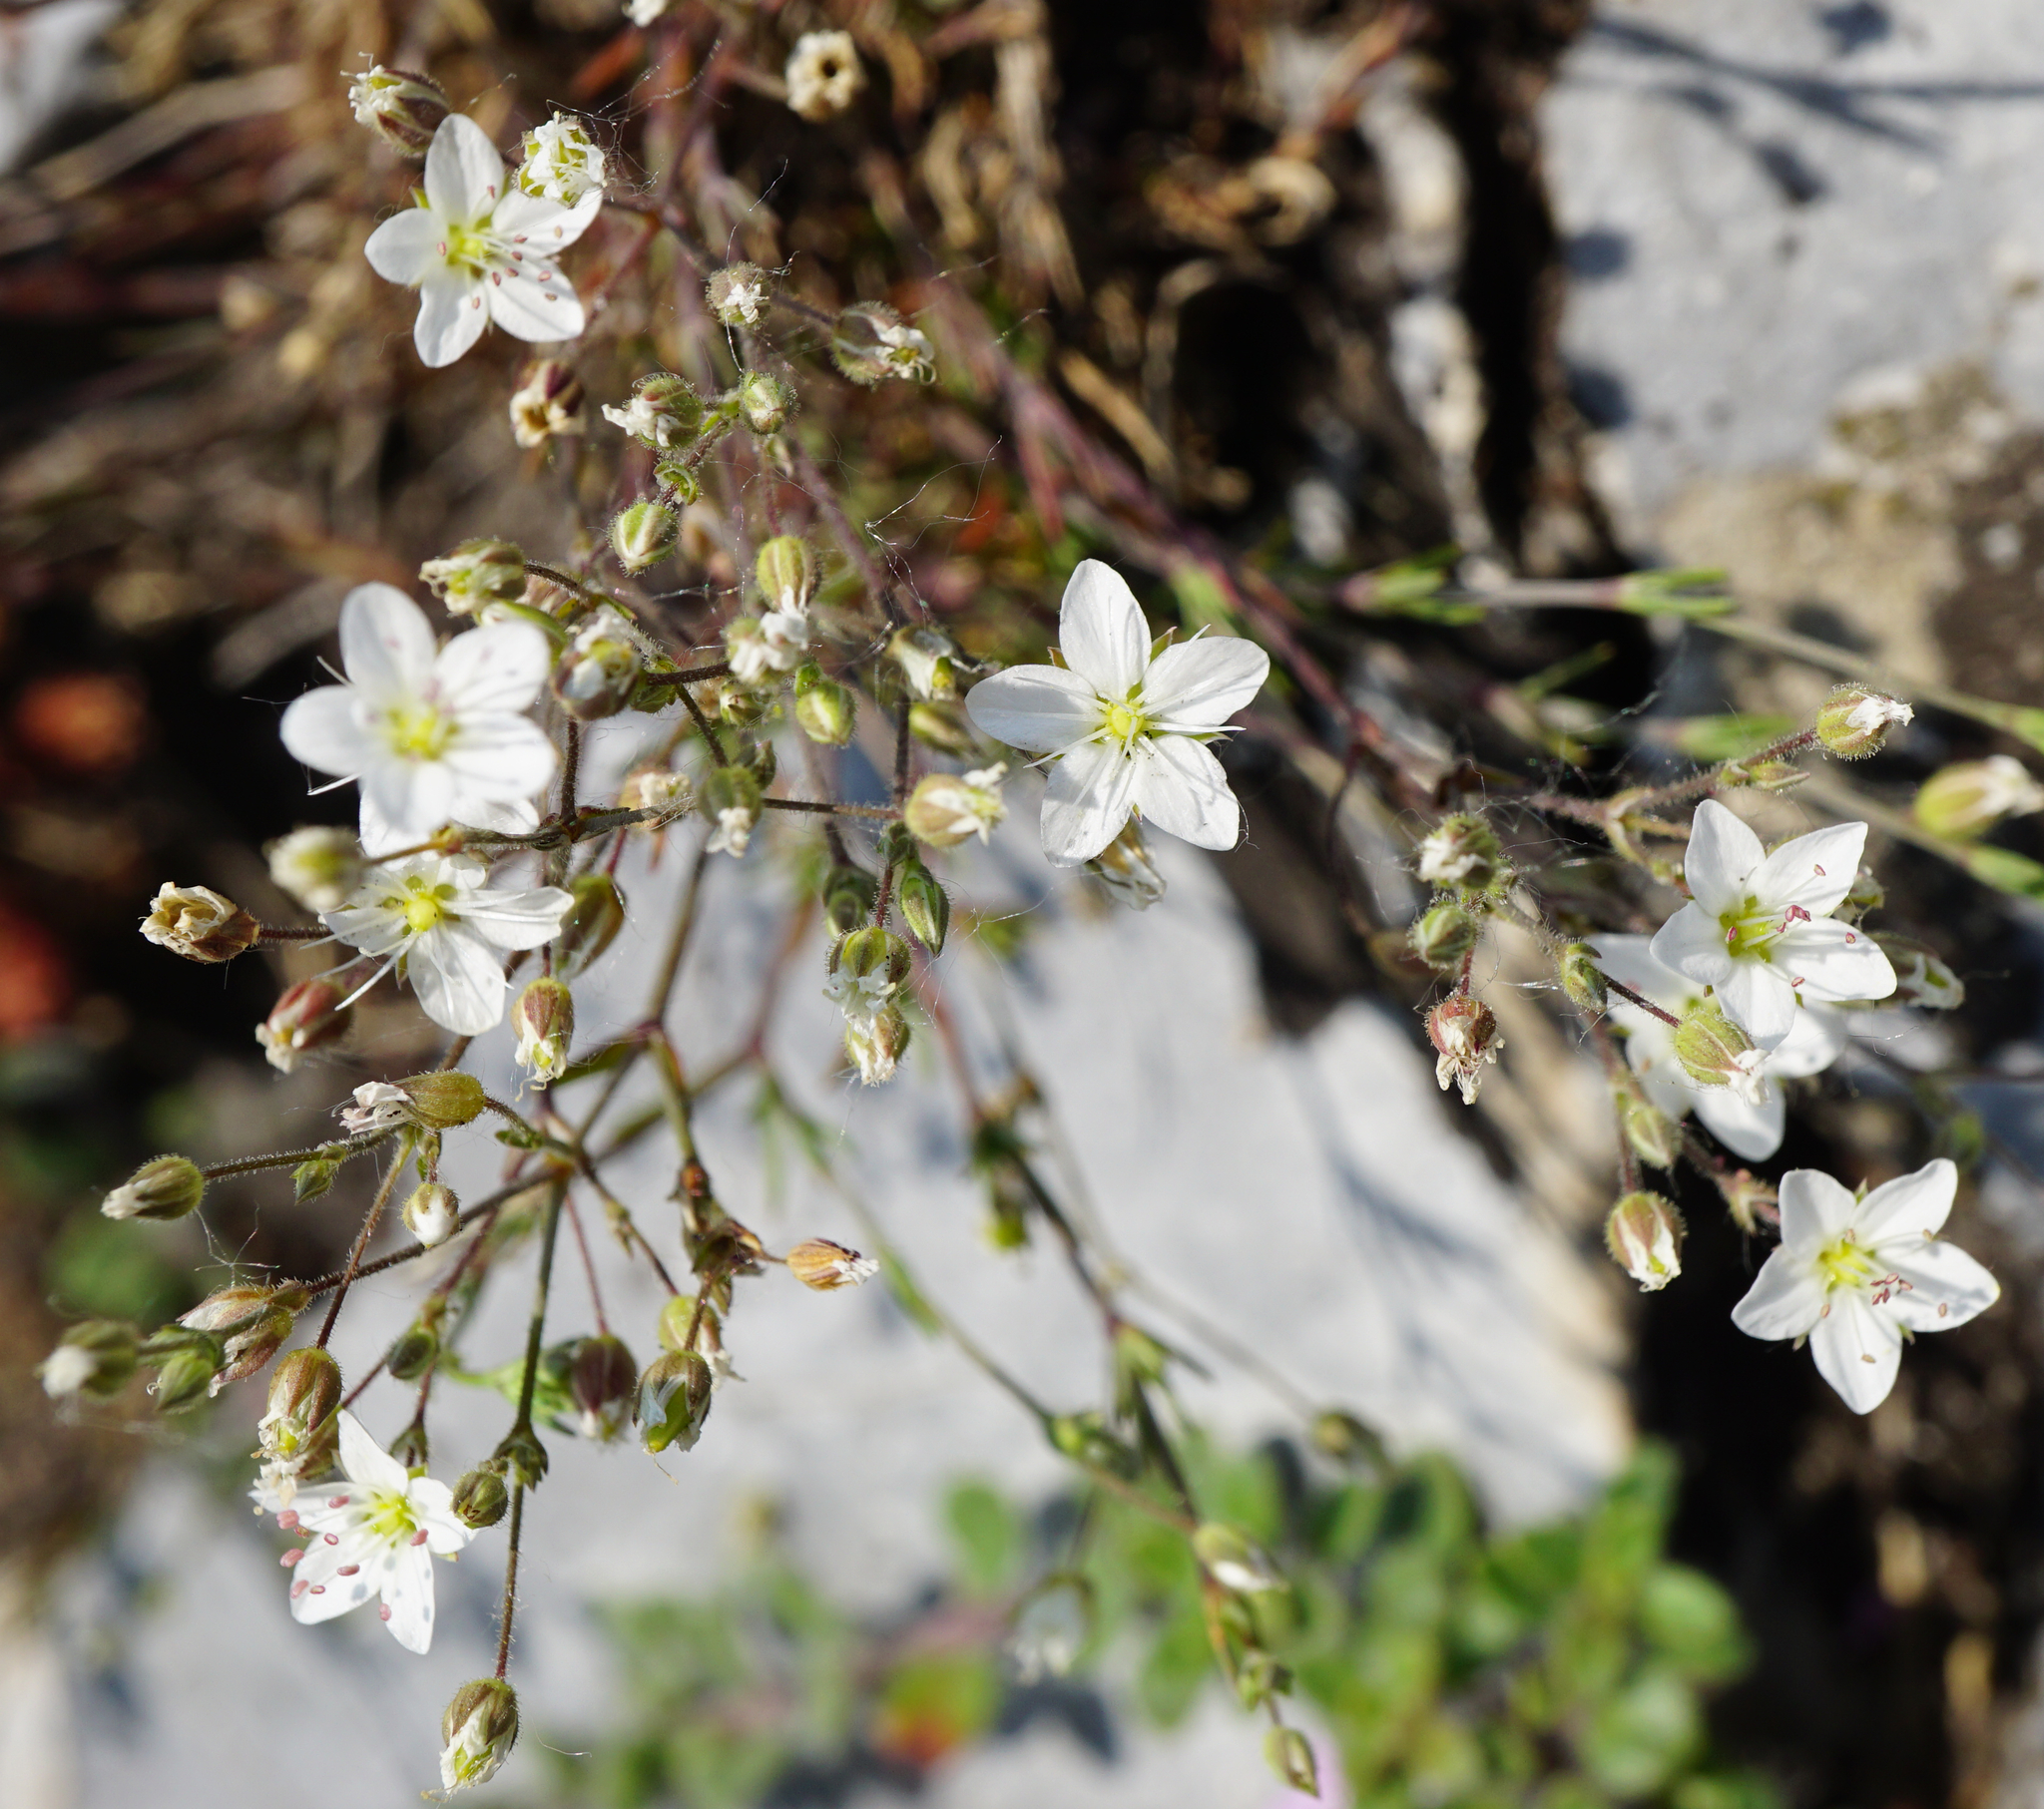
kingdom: Plantae
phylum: Tracheophyta
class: Magnoliopsida
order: Caryophyllales
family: Caryophyllaceae
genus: Sabulina
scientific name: Sabulina glaucina
